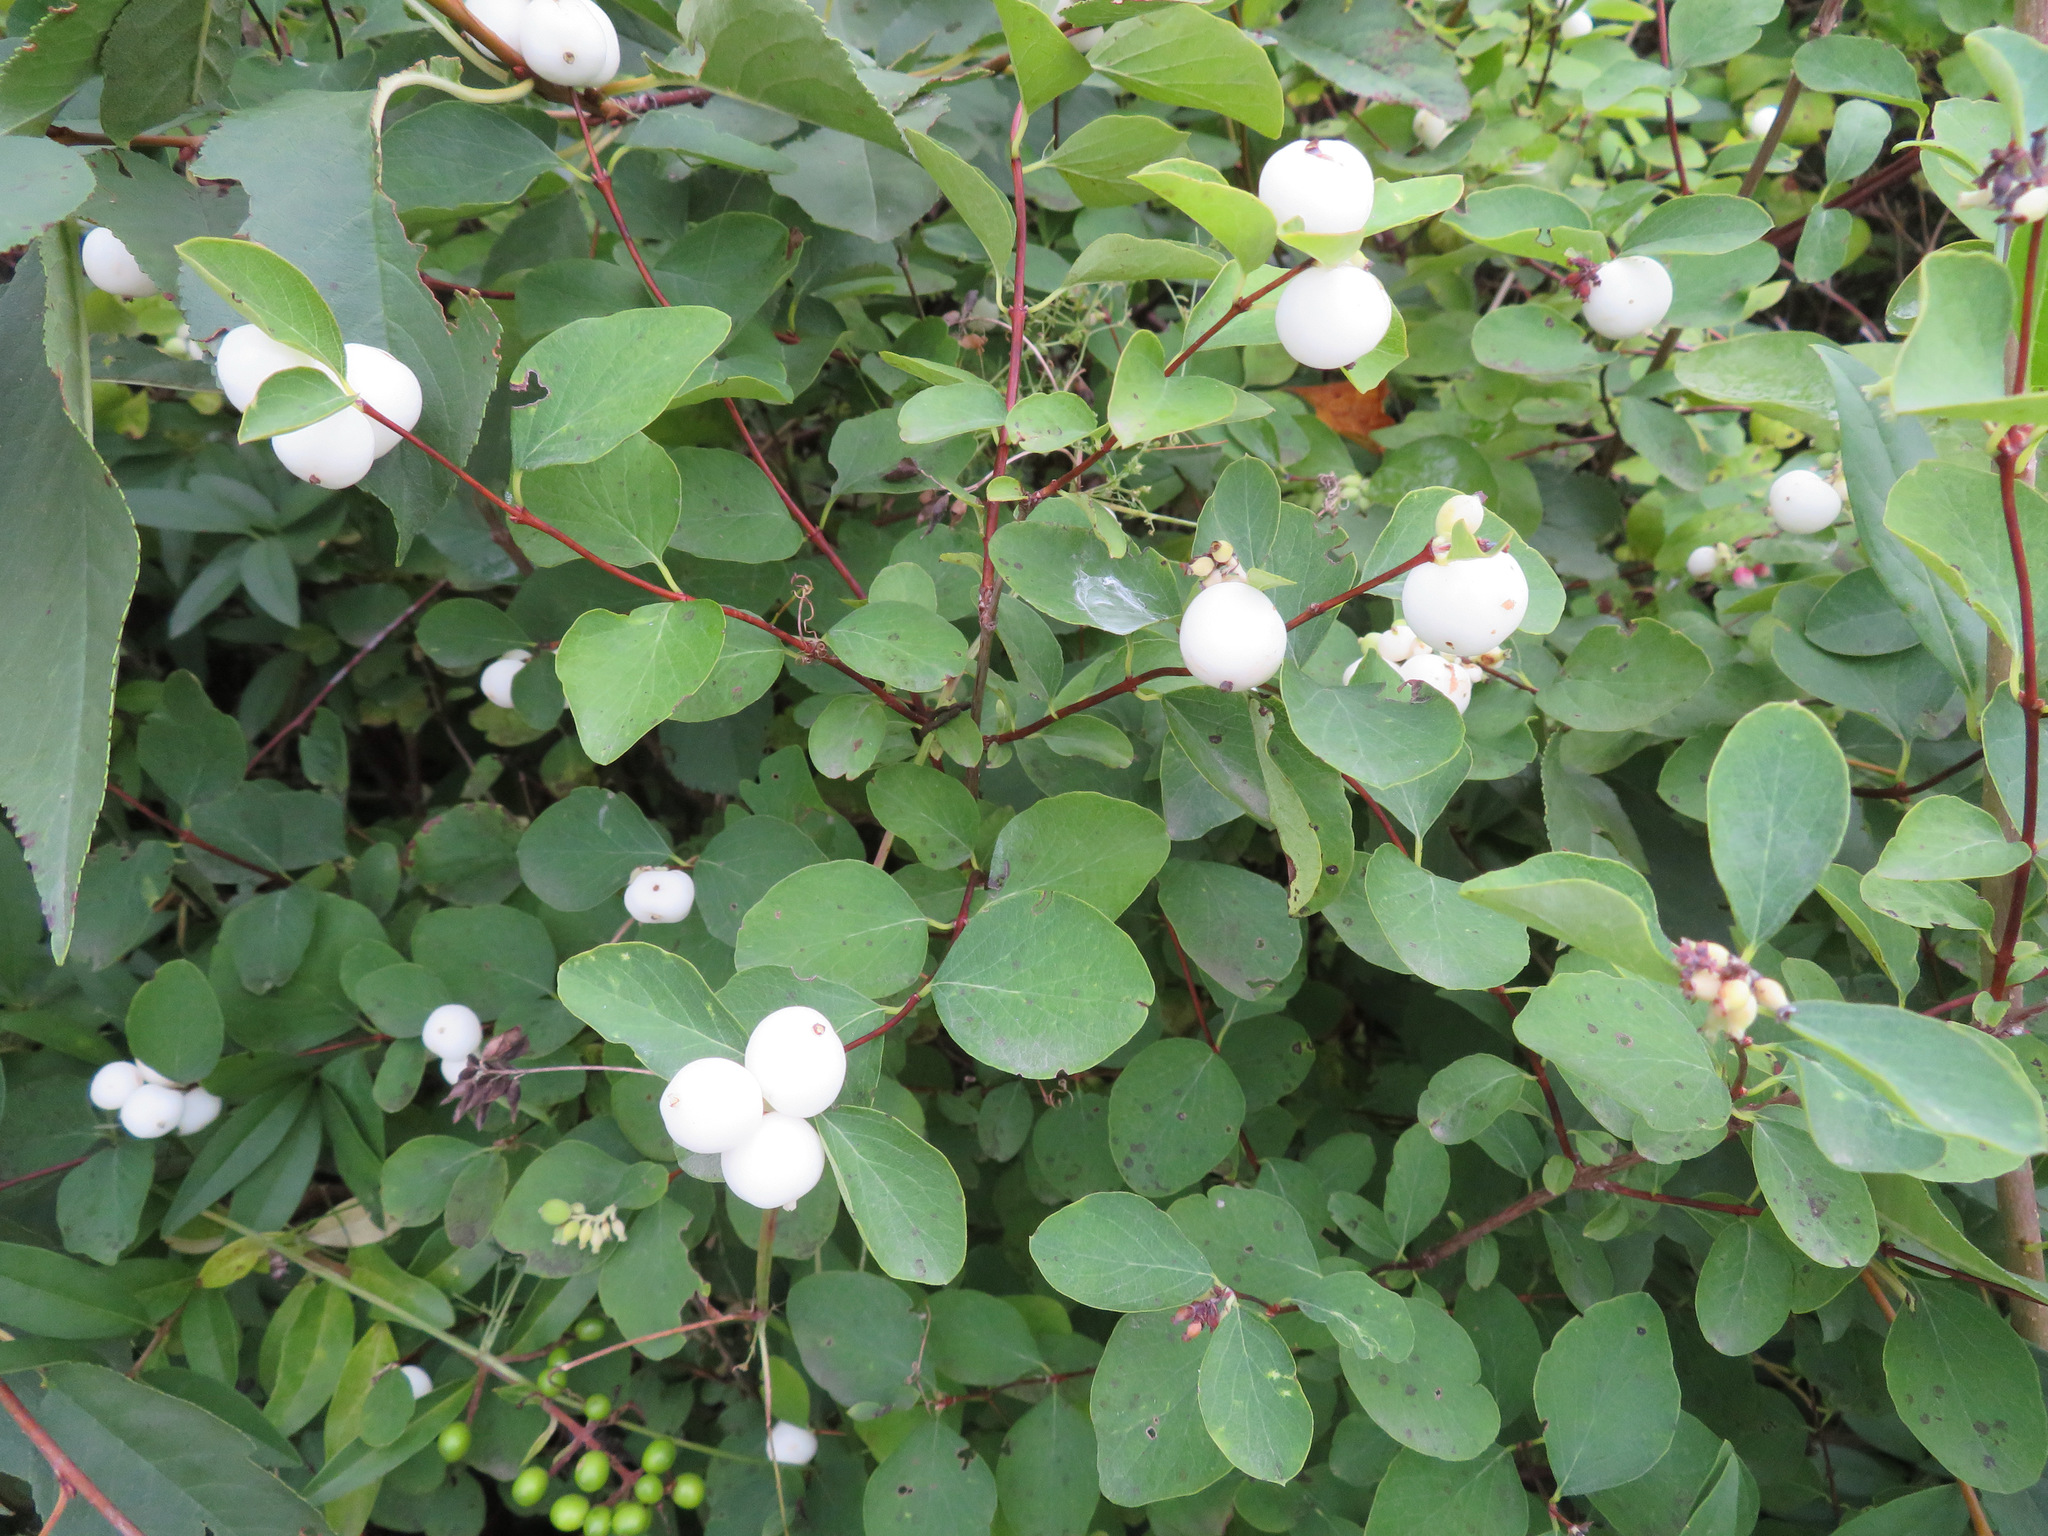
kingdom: Plantae
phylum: Tracheophyta
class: Magnoliopsida
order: Dipsacales
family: Caprifoliaceae
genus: Symphoricarpos
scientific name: Symphoricarpos albus
